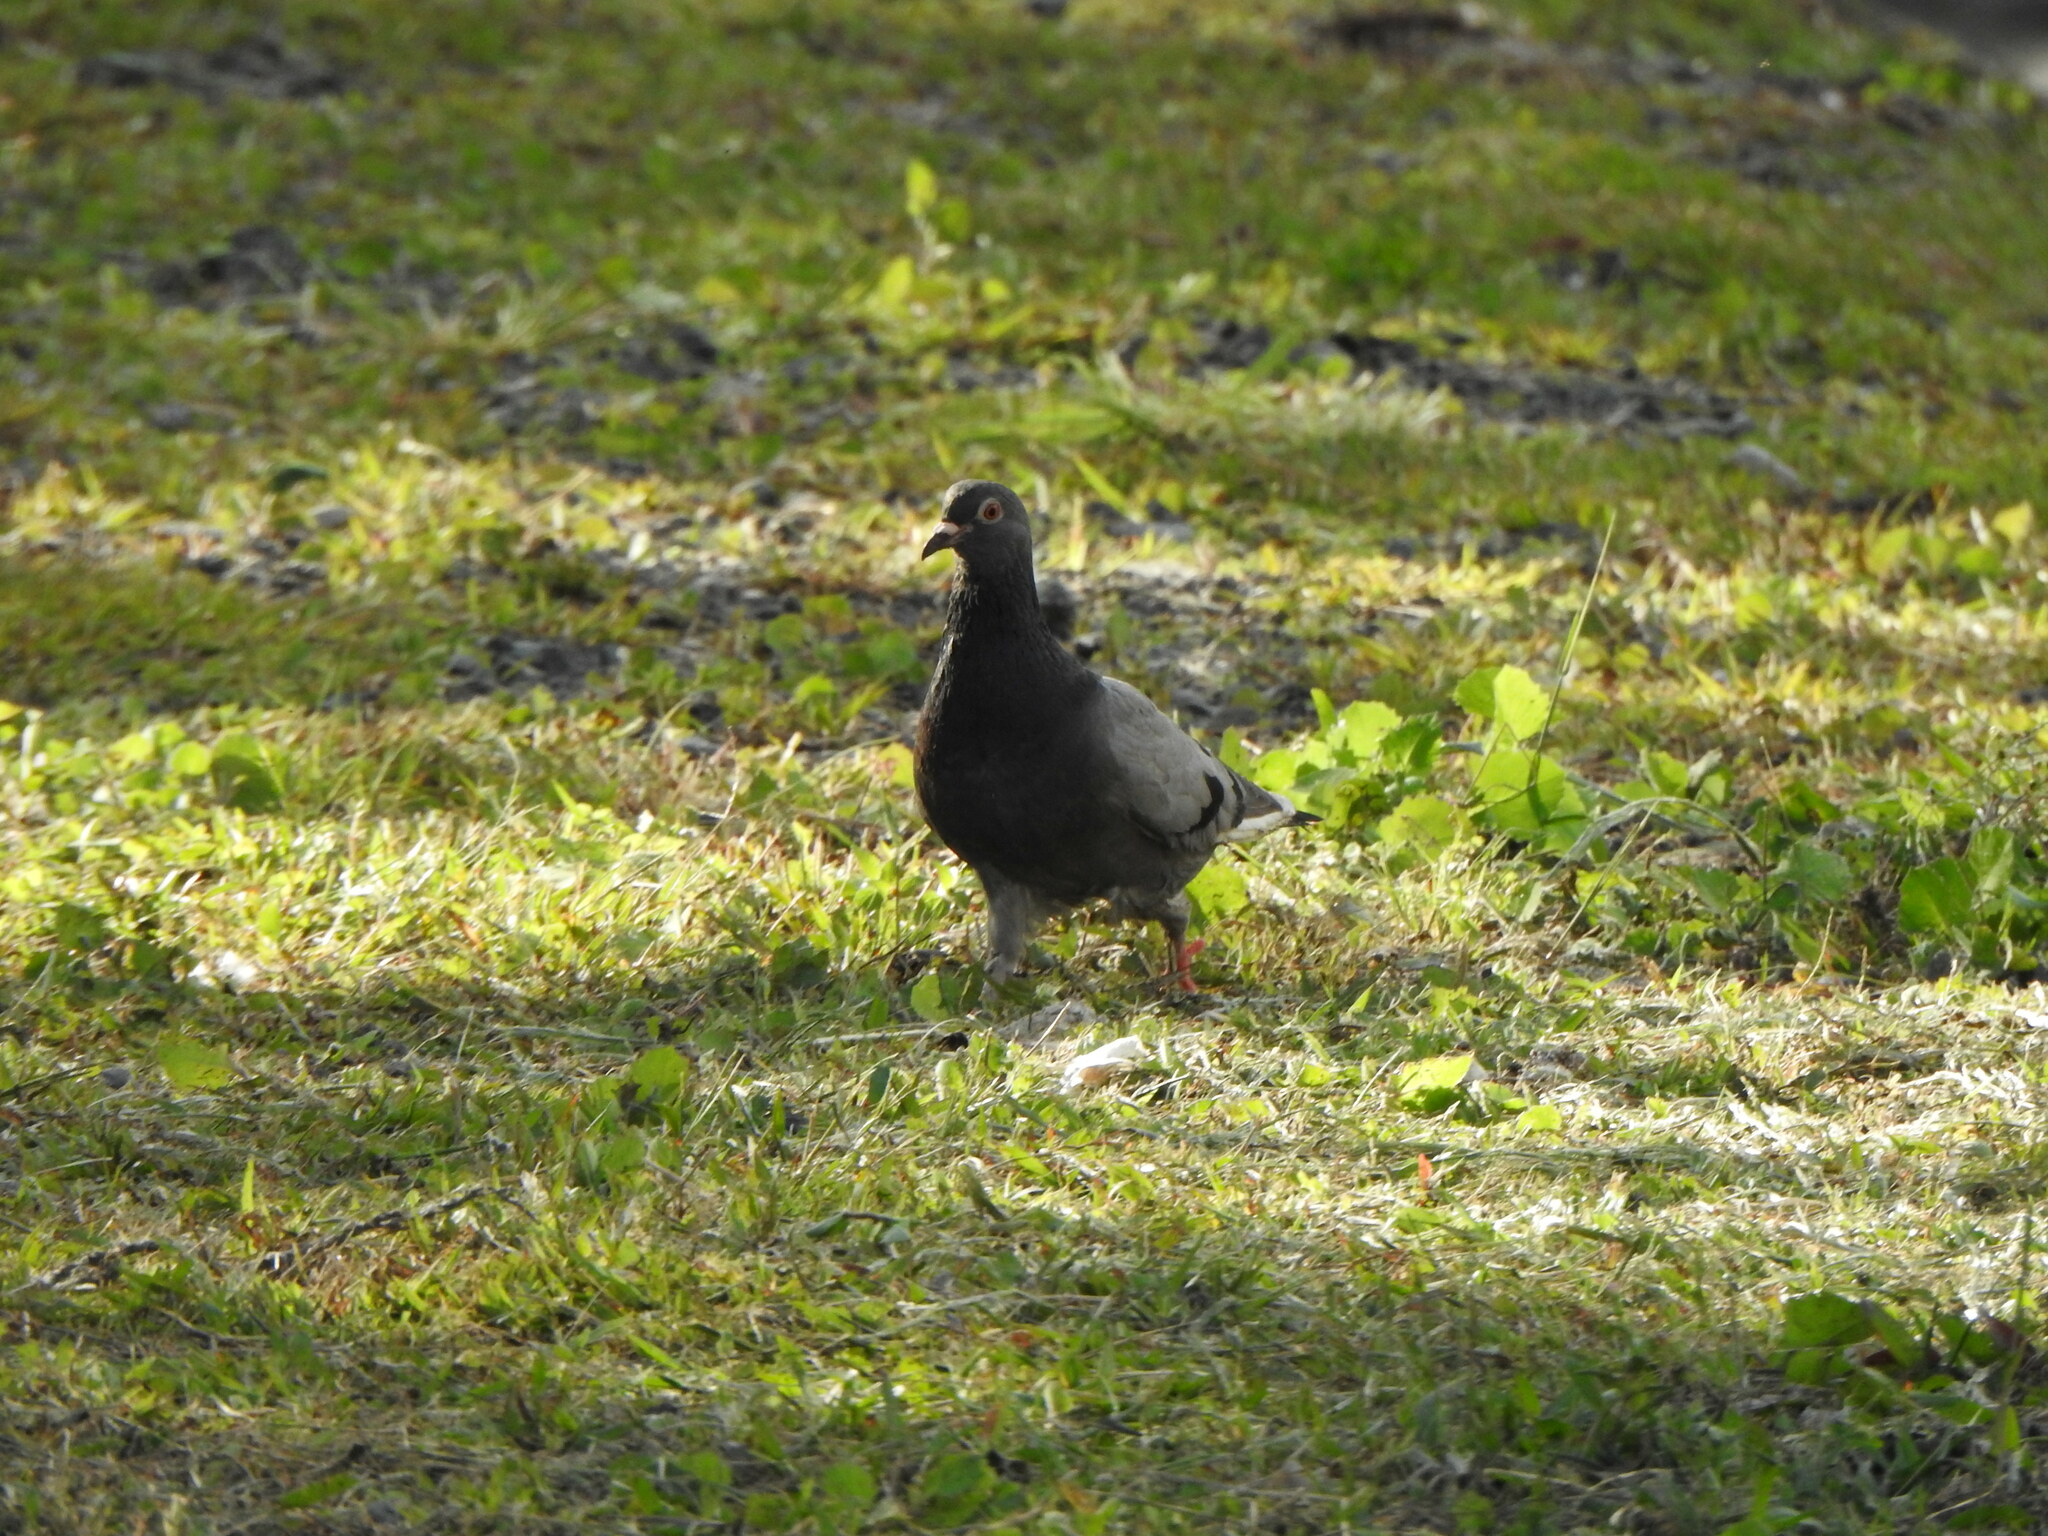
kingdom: Animalia
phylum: Chordata
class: Aves
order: Columbiformes
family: Columbidae
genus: Columba
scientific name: Columba livia
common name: Rock pigeon
